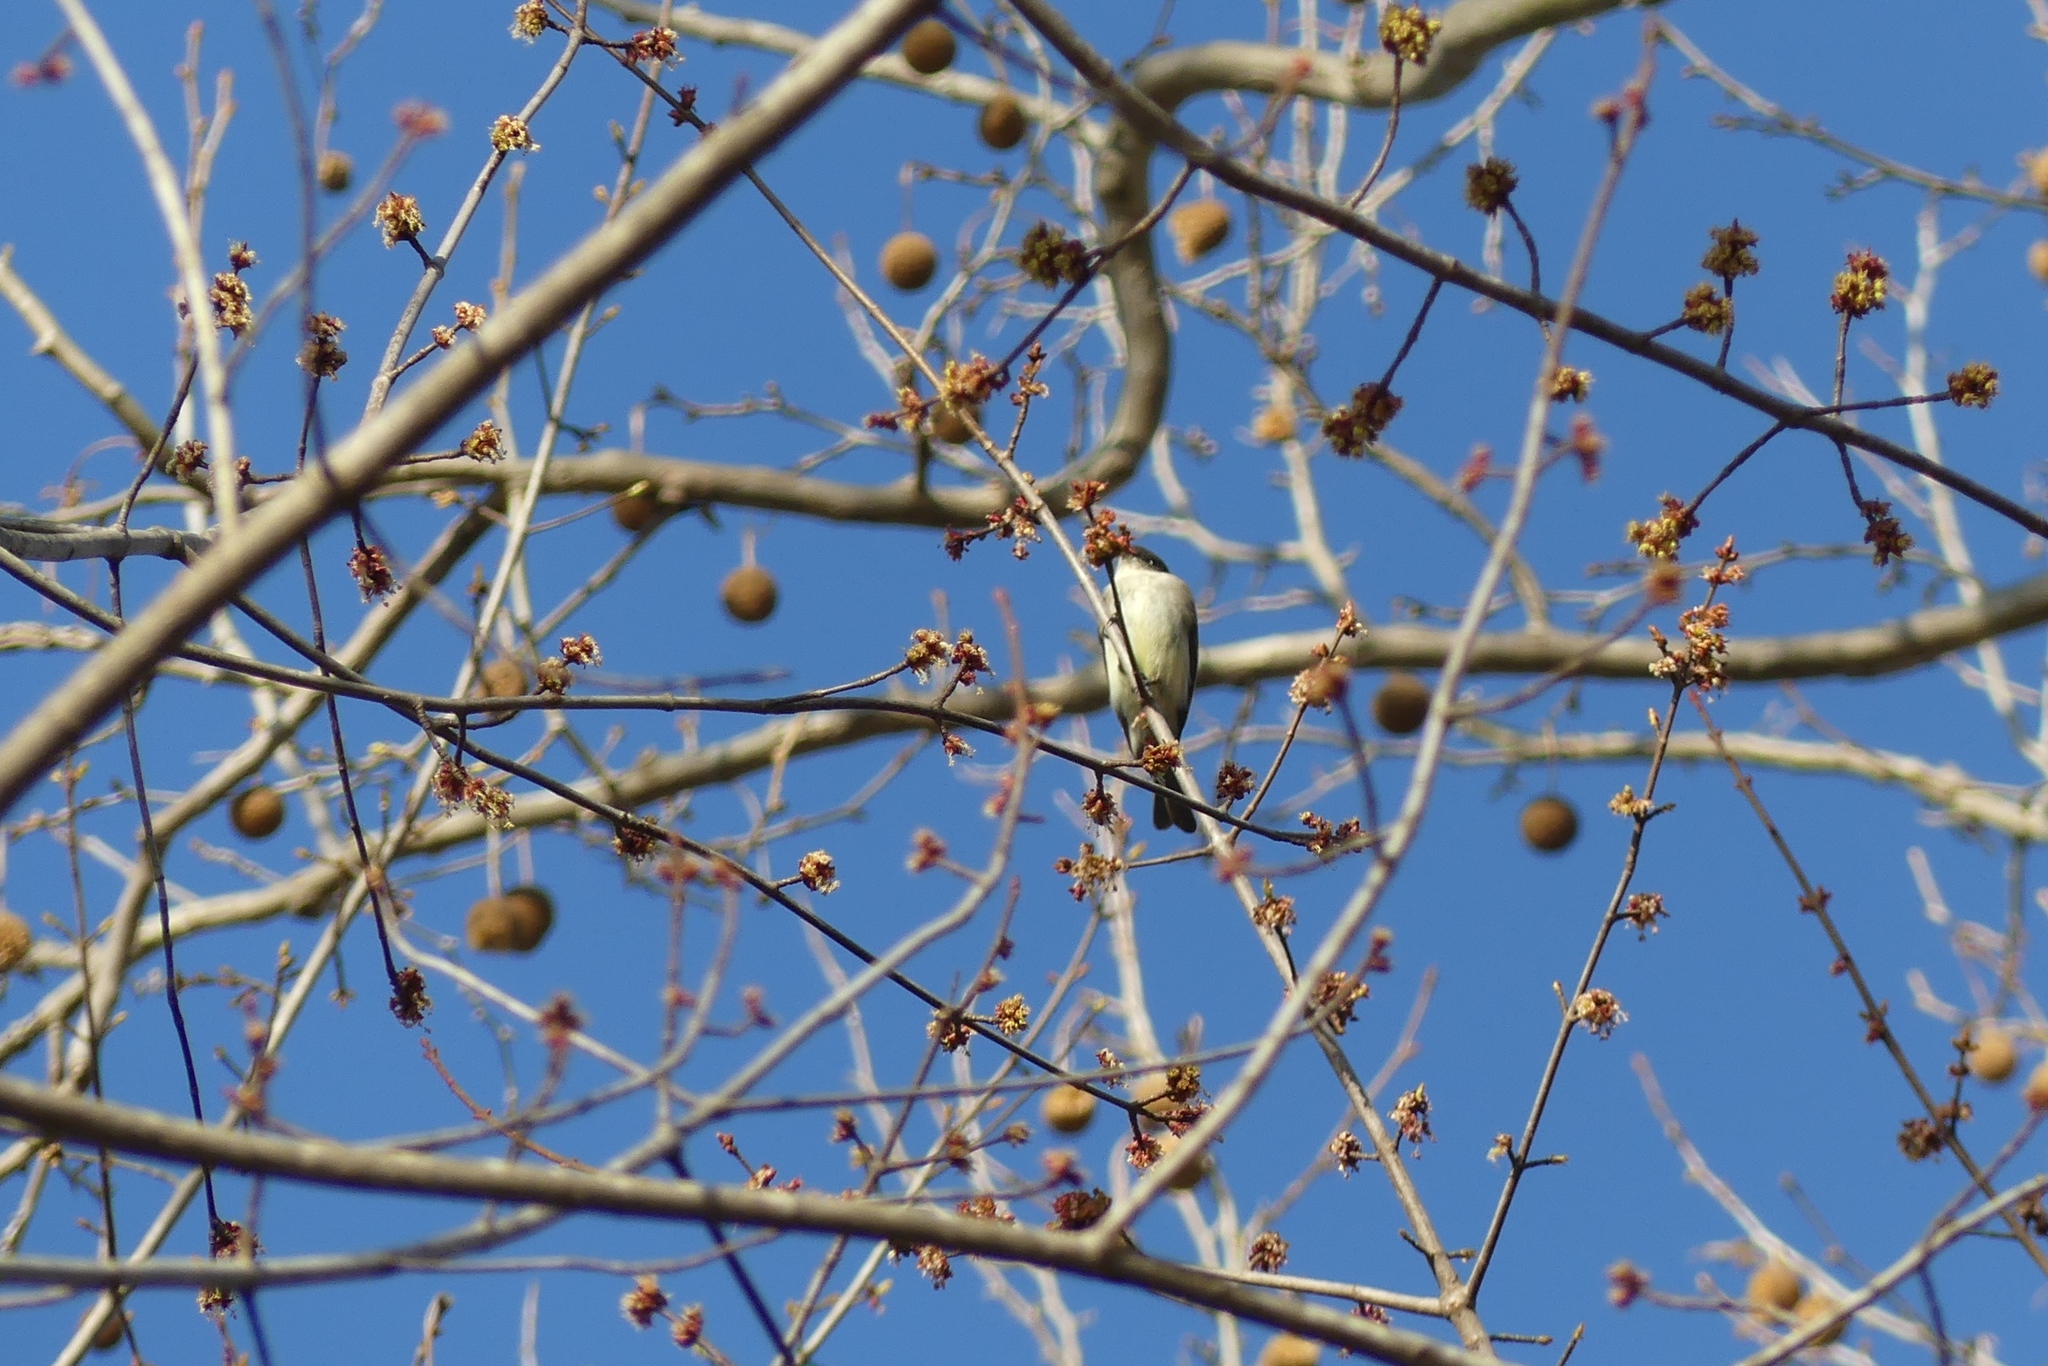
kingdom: Animalia
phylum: Chordata
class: Aves
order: Passeriformes
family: Tyrannidae
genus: Sayornis
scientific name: Sayornis phoebe
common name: Eastern phoebe
